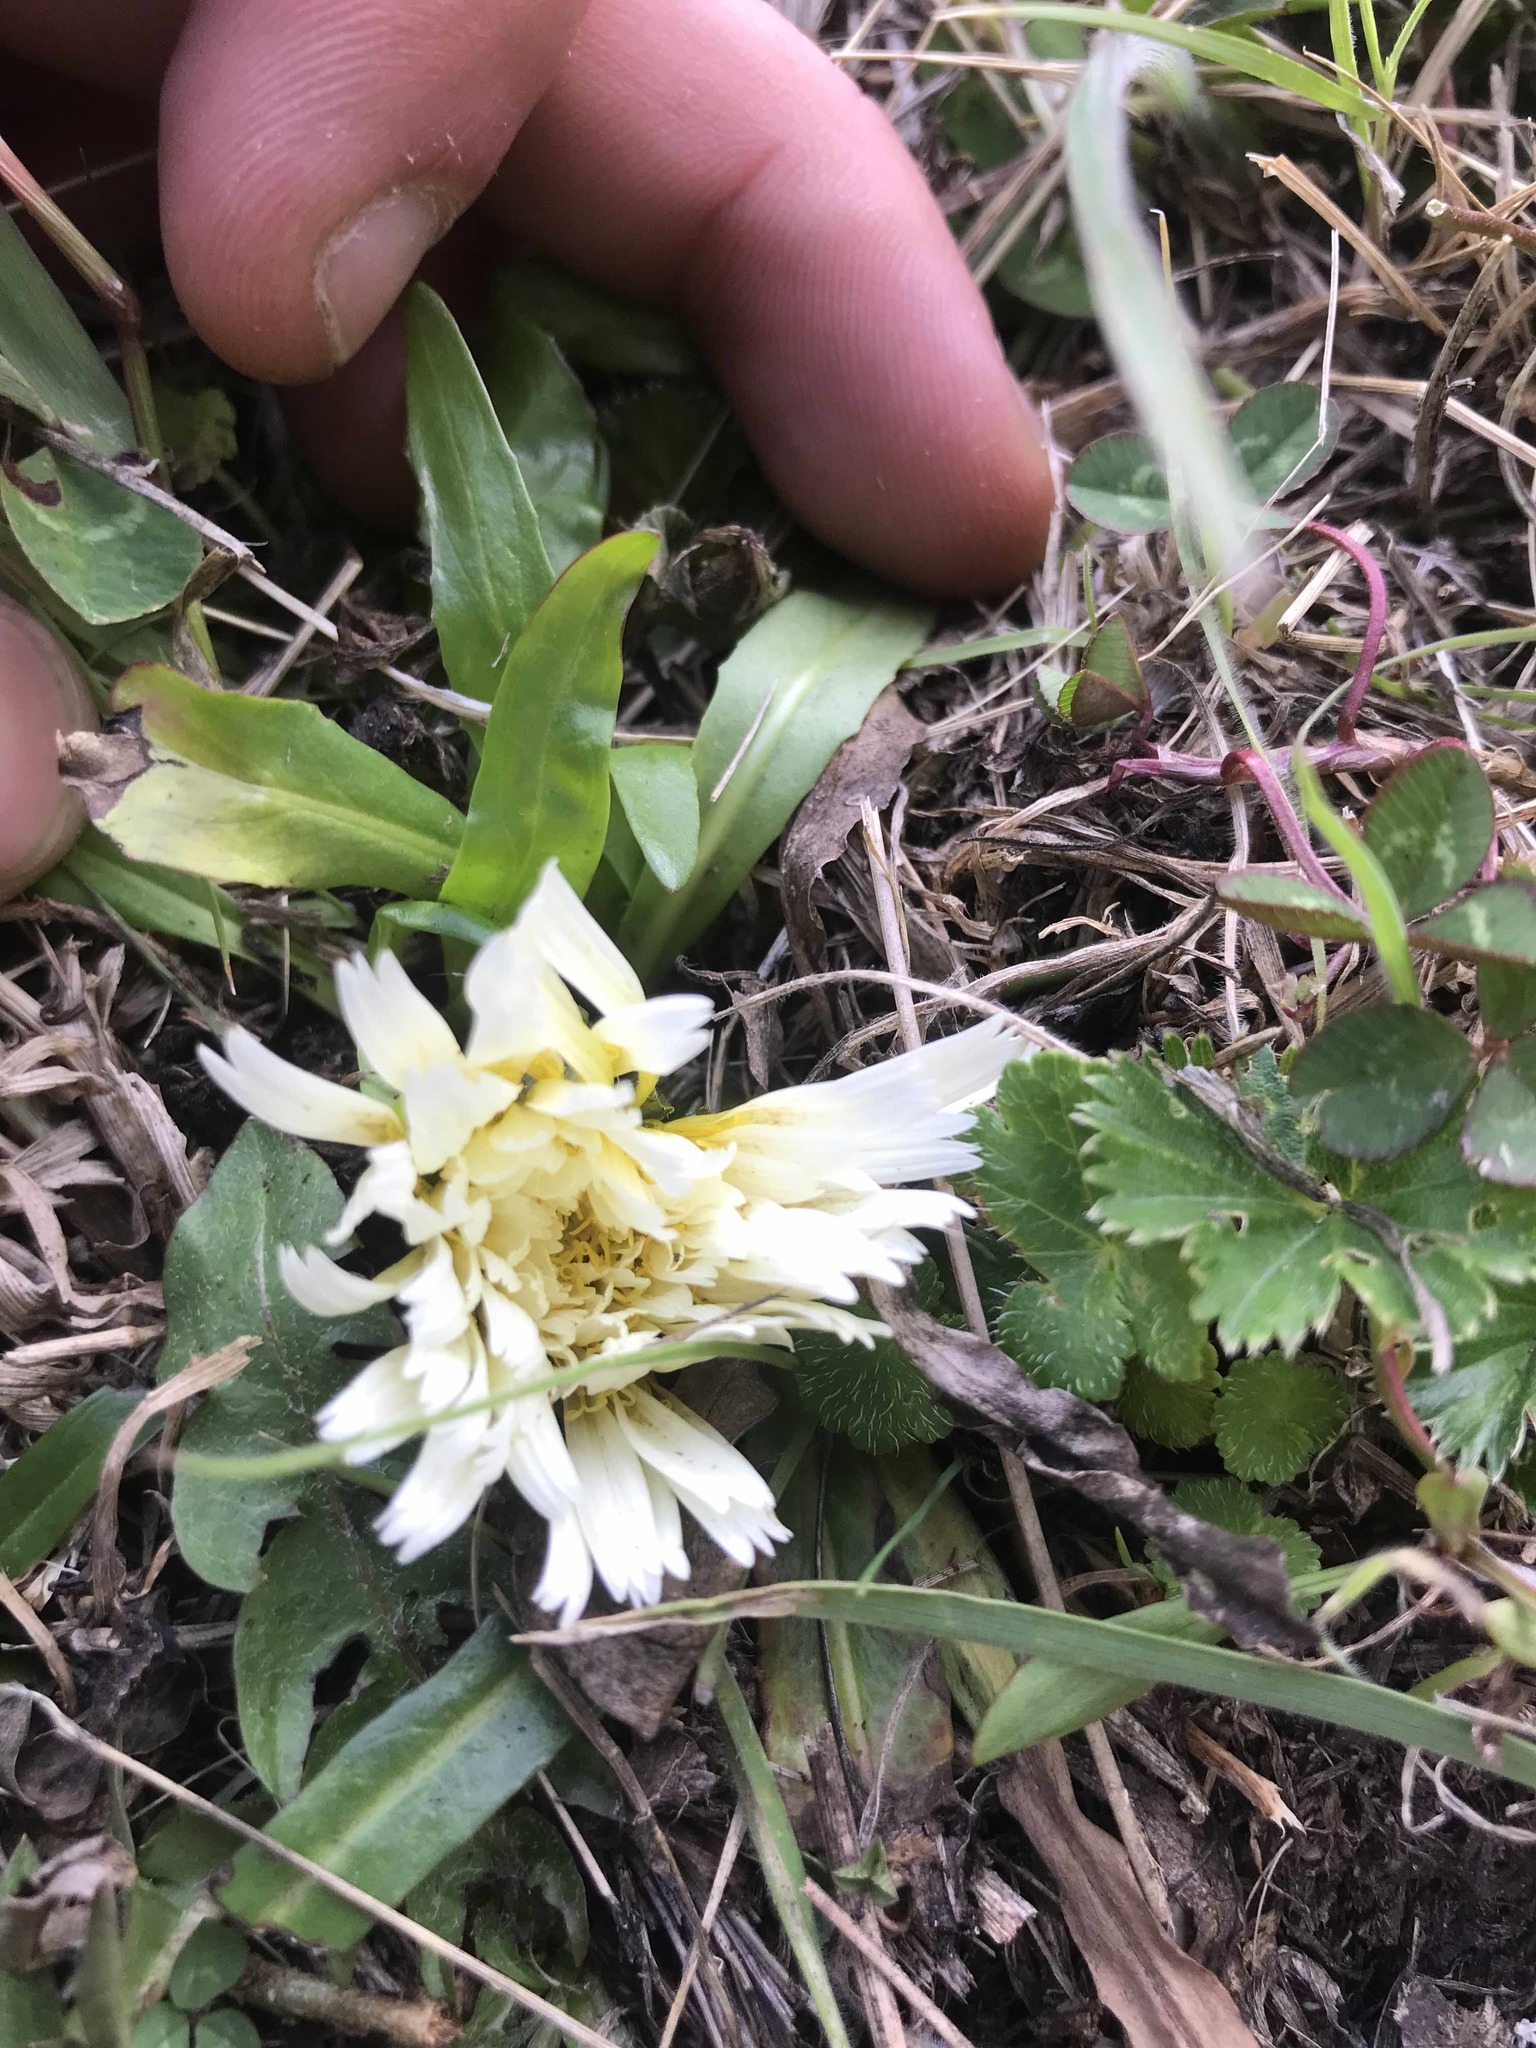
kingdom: Plantae
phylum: Tracheophyta
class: Magnoliopsida
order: Asterales
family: Asteraceae
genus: Hypochaeris
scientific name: Hypochaeris sessiliflora
